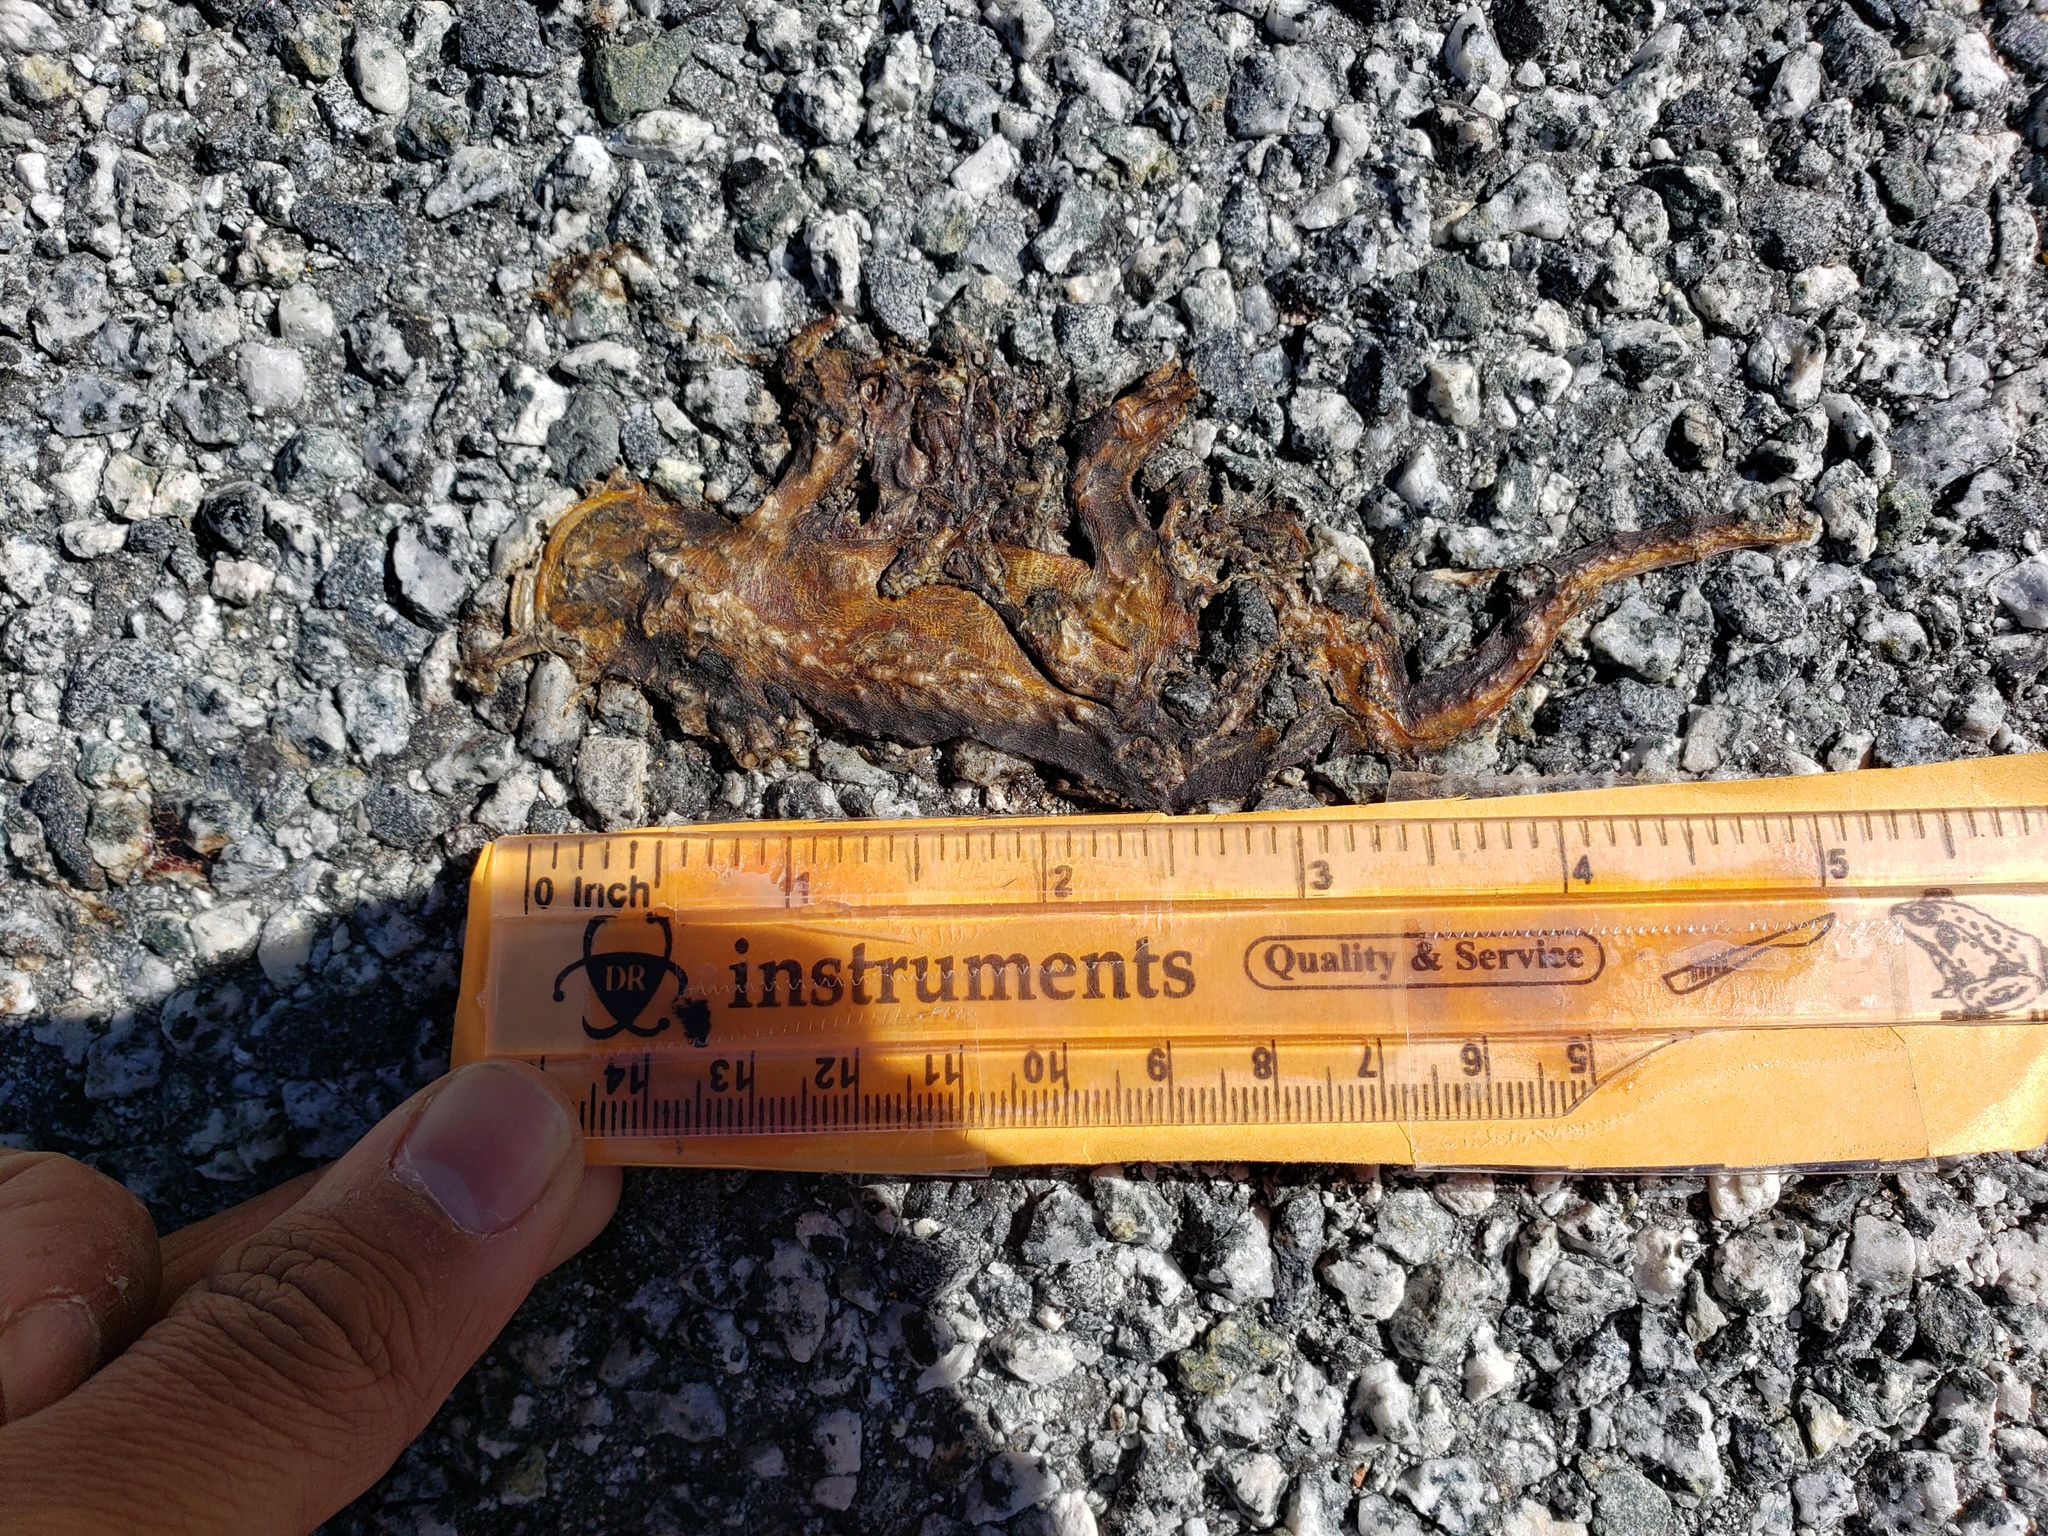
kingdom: Animalia
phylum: Chordata
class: Amphibia
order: Caudata
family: Salamandridae
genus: Taricha
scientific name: Taricha
